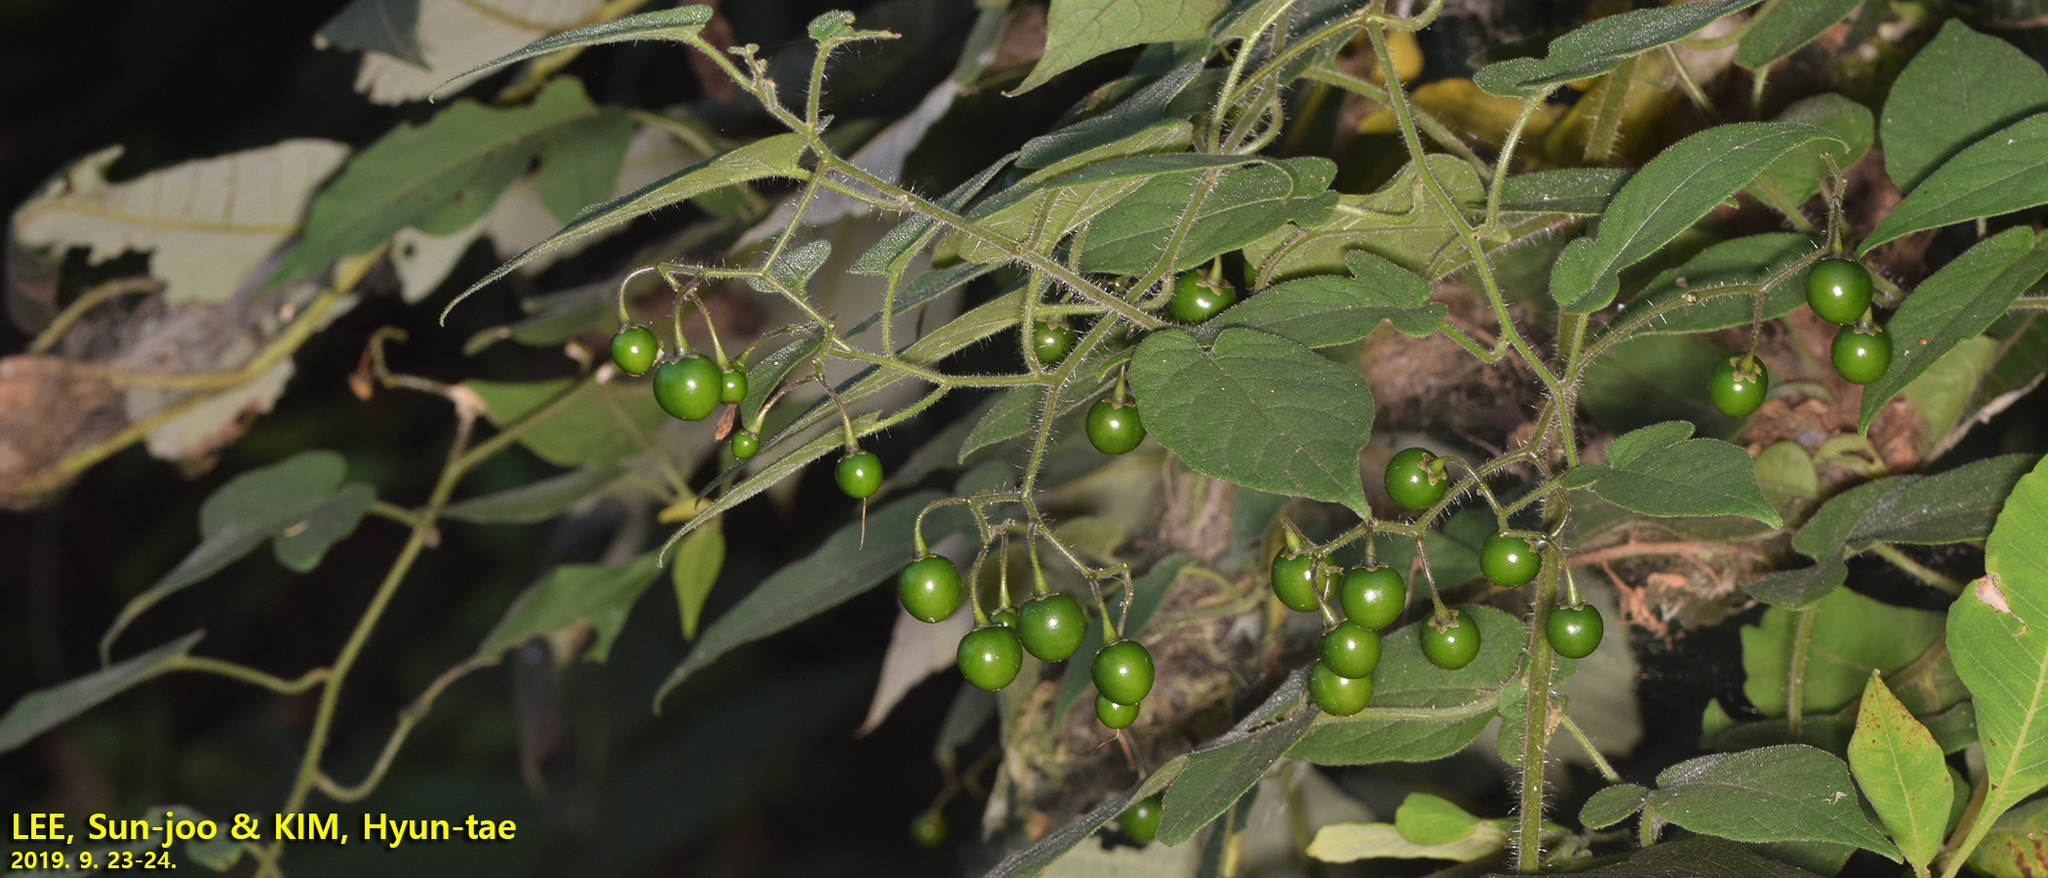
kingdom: Plantae
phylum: Tracheophyta
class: Magnoliopsida
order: Solanales
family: Solanaceae
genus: Solanum
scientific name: Solanum lyratum
